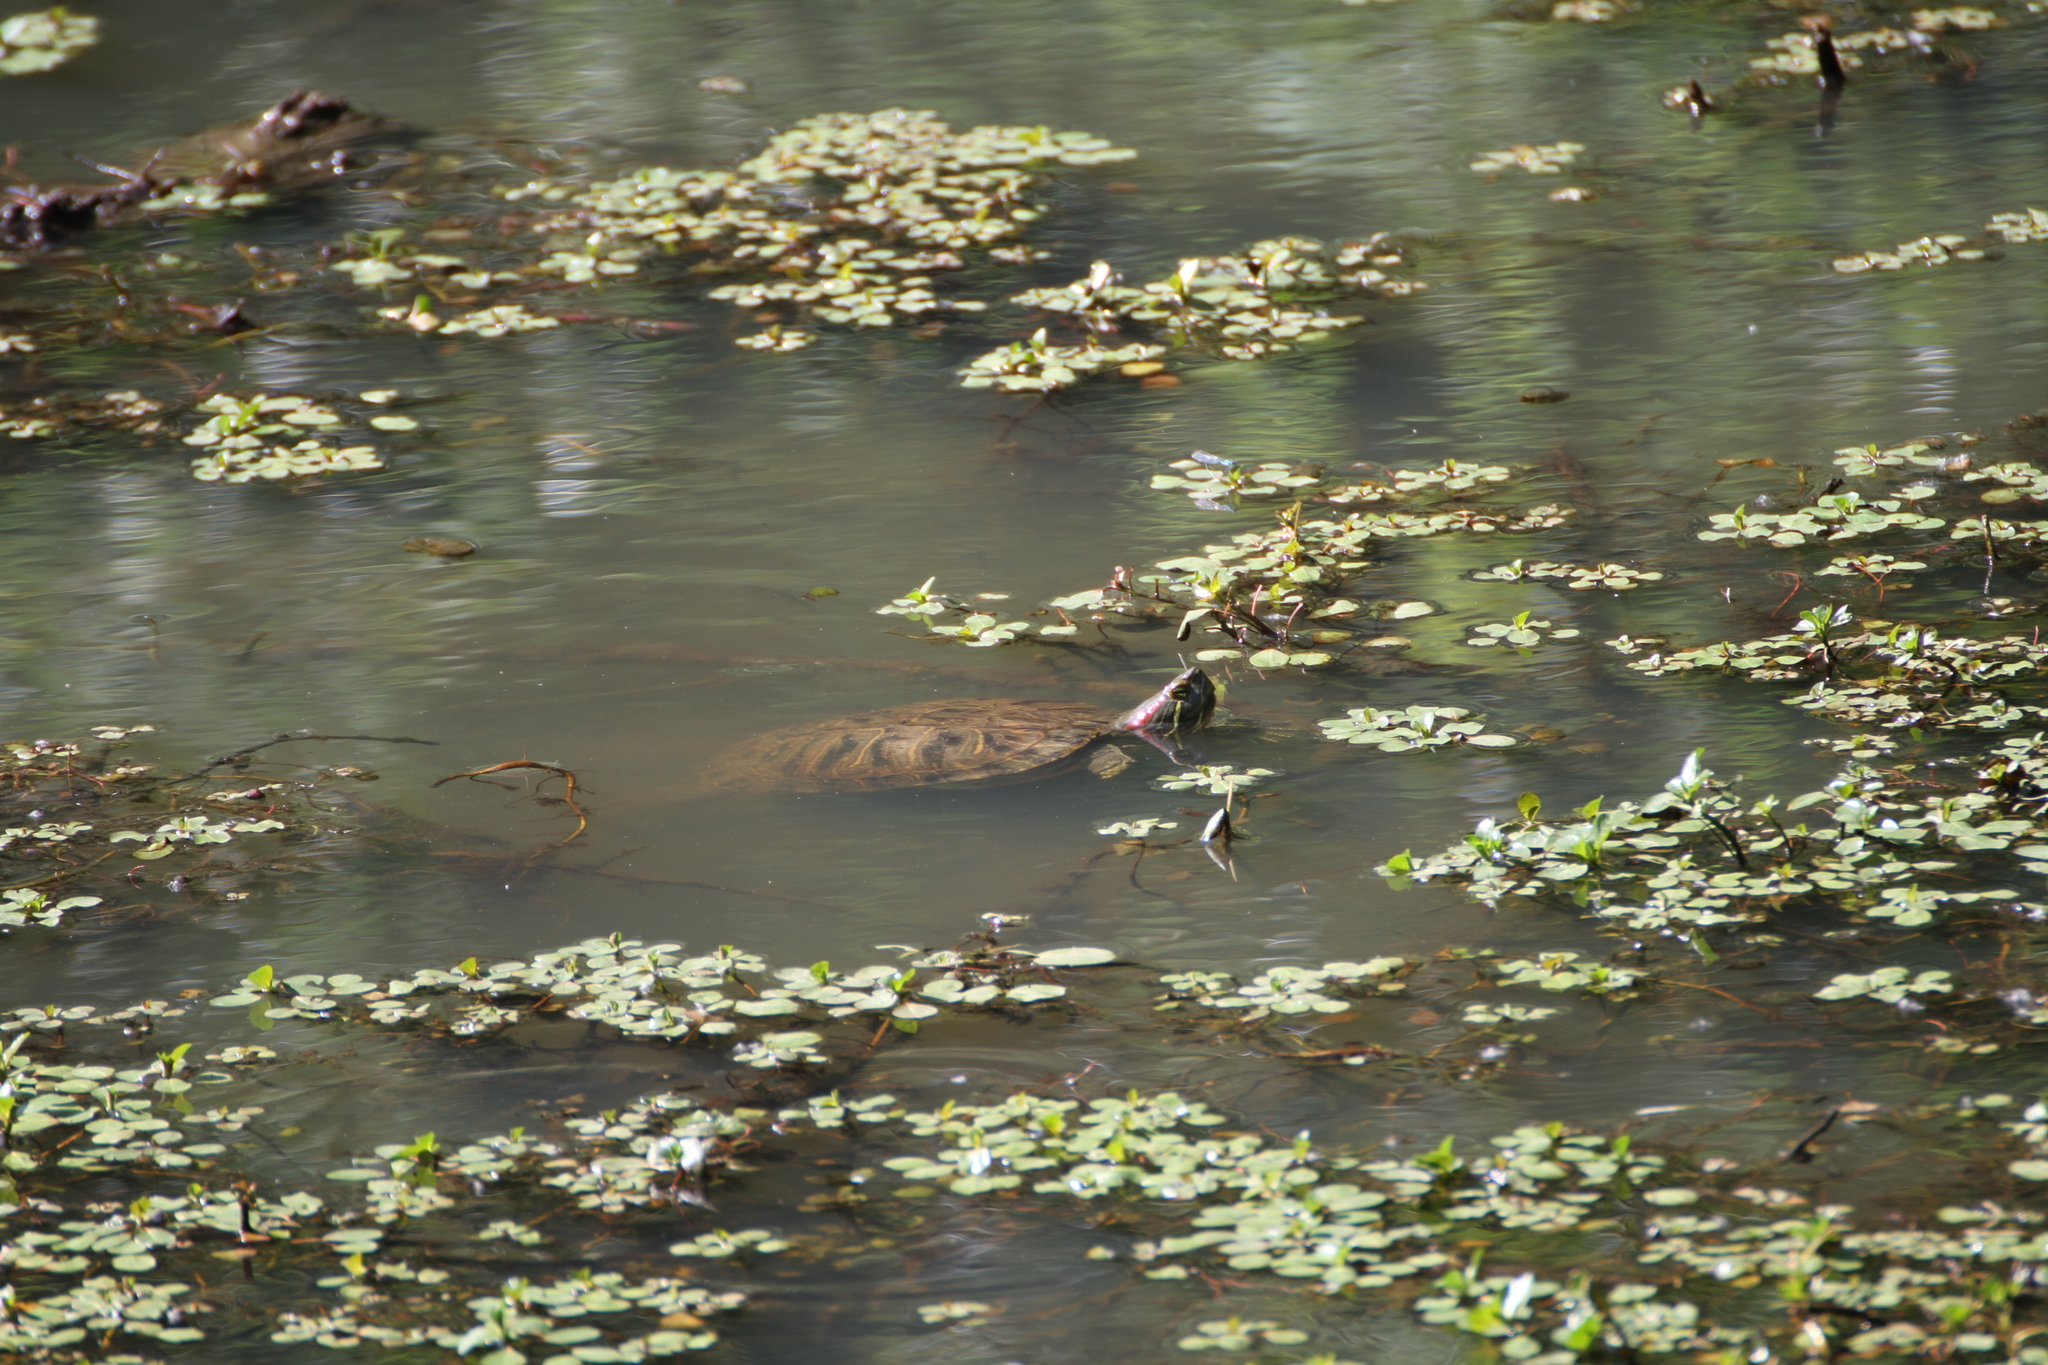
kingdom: Animalia
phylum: Chordata
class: Testudines
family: Emydidae
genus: Trachemys
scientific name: Trachemys scripta
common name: Slider
